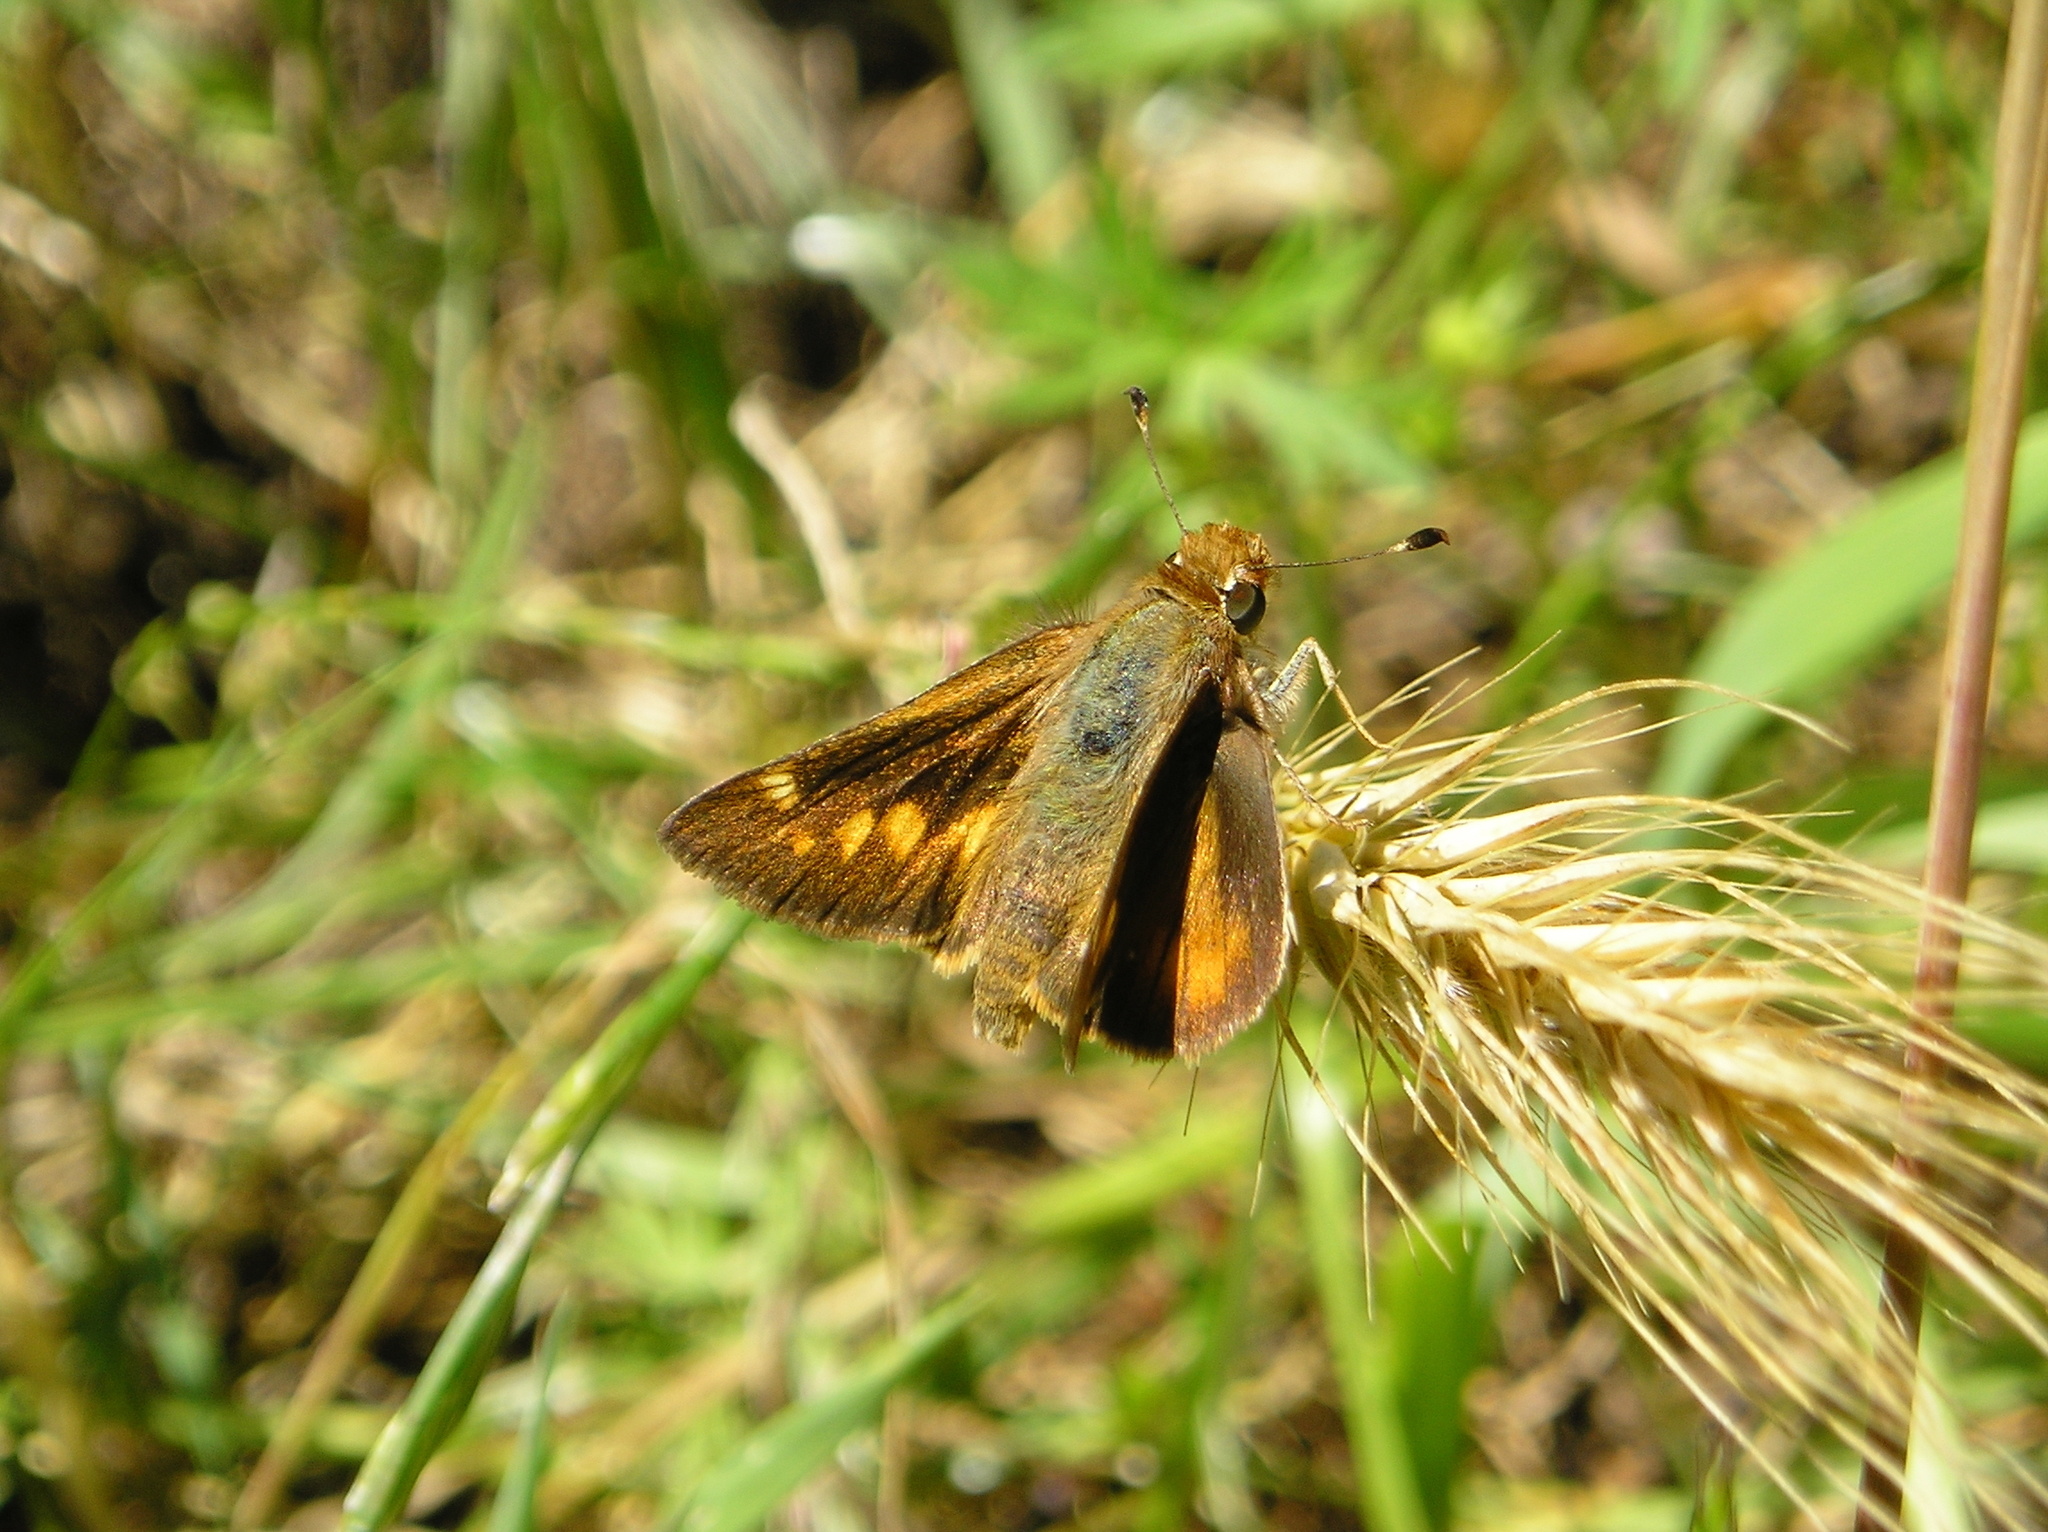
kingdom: Animalia
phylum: Arthropoda
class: Insecta
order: Lepidoptera
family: Hesperiidae
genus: Lon
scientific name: Lon melane
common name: Umber skipper
